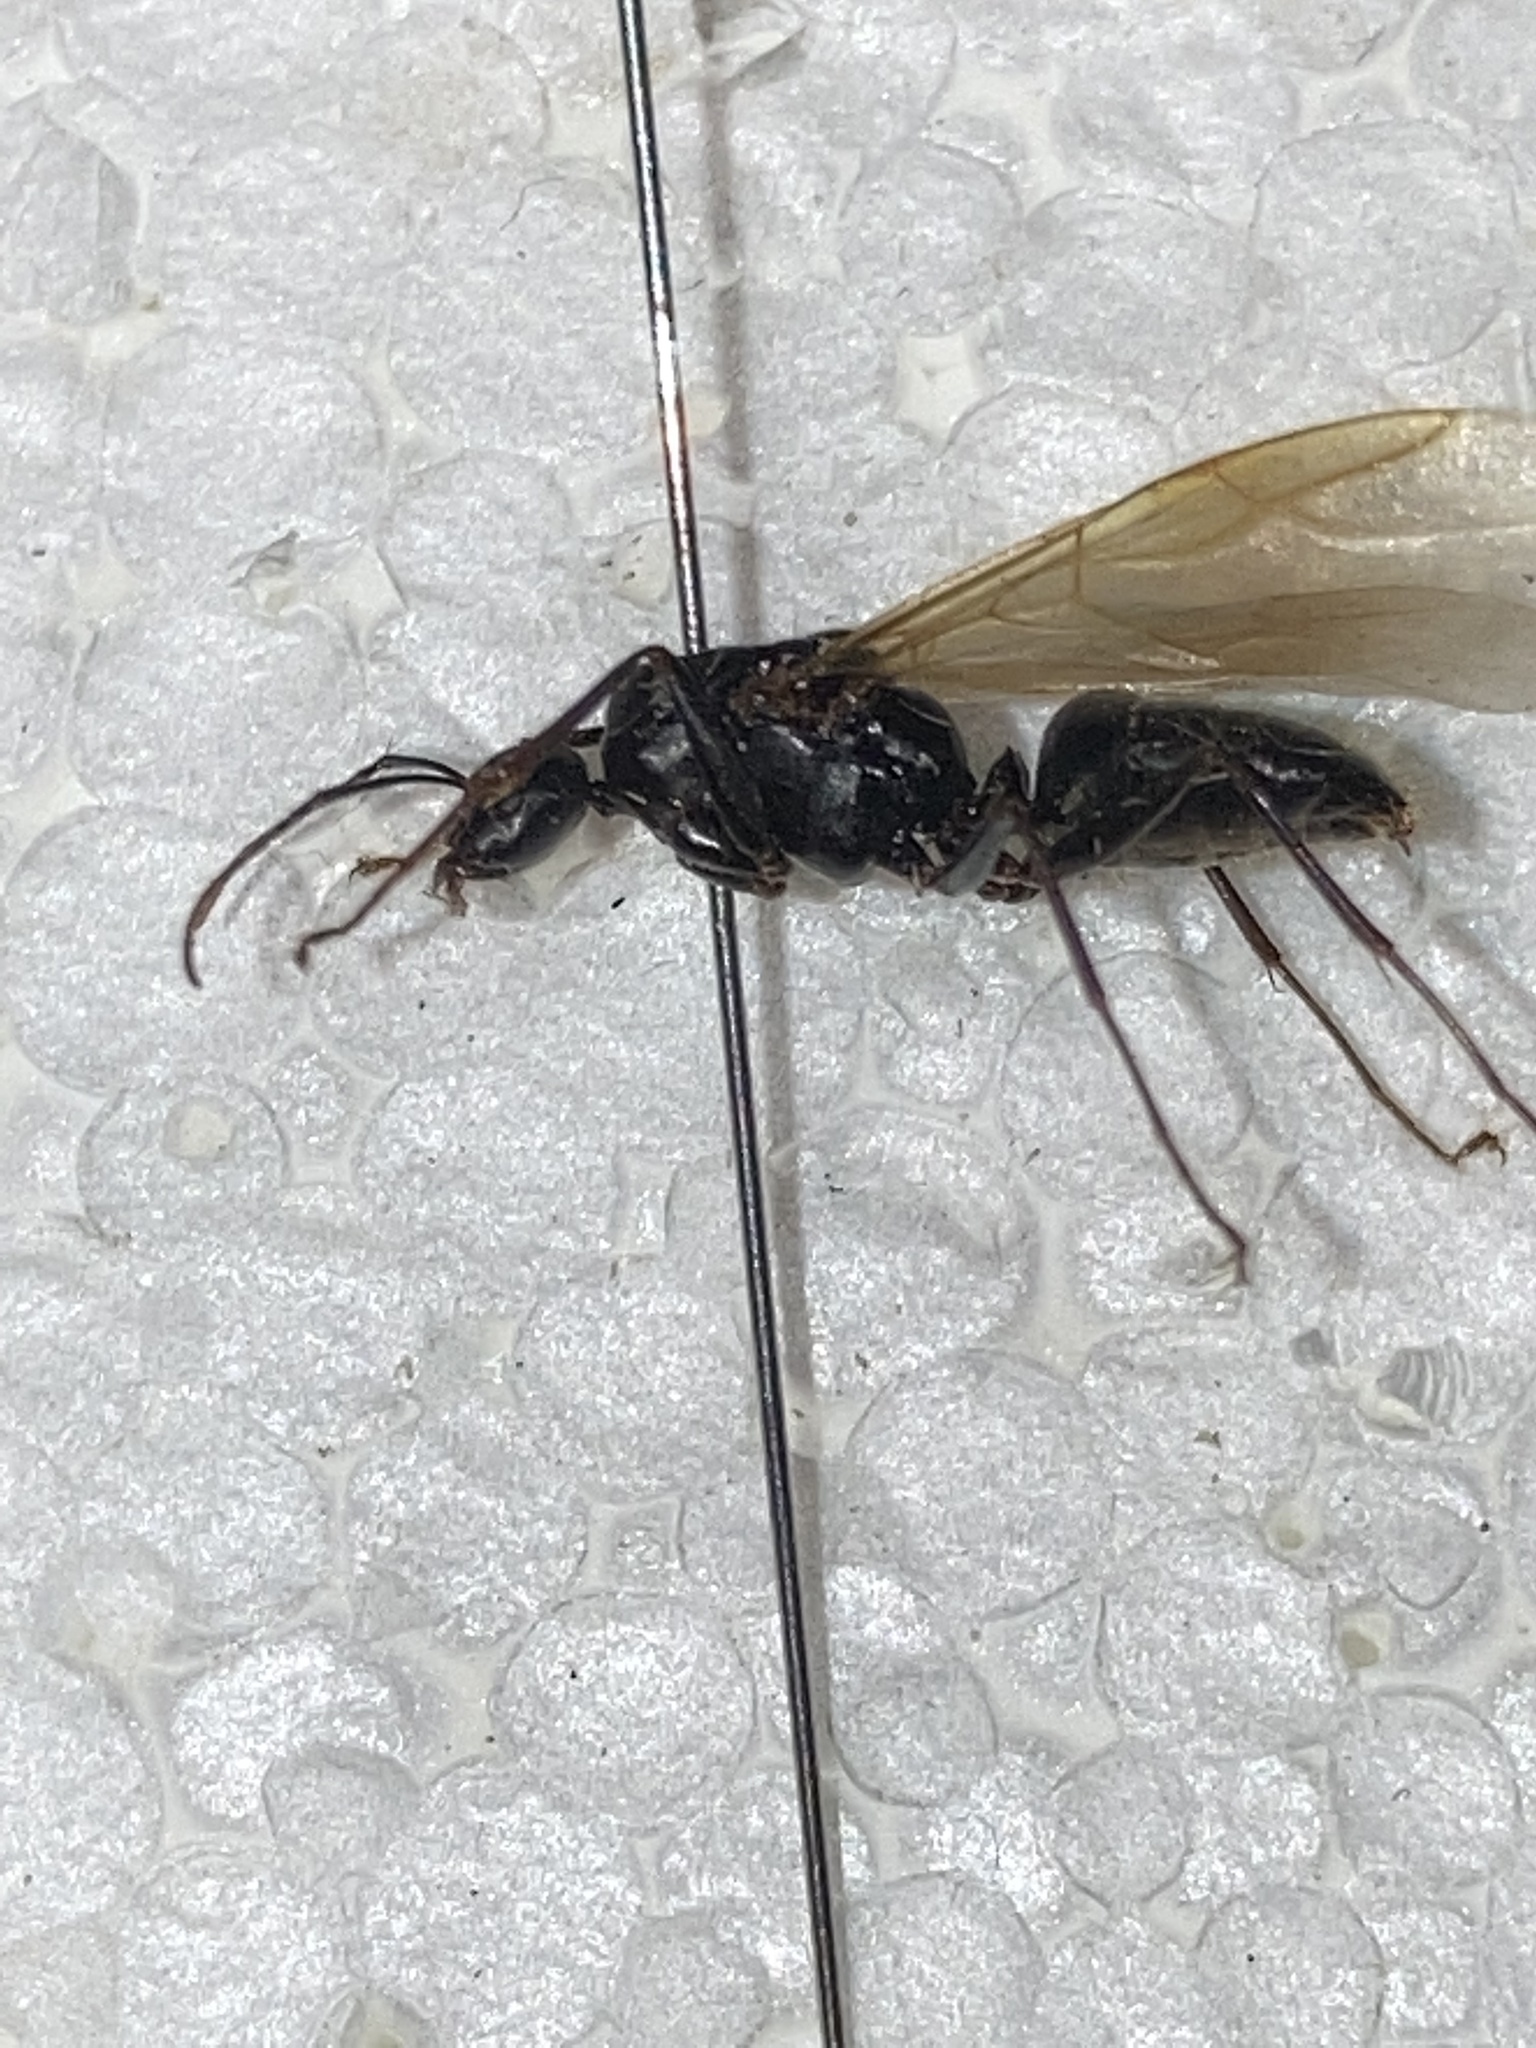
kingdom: Animalia
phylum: Arthropoda
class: Insecta
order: Hymenoptera
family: Formicidae
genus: Camponotus
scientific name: Camponotus pennsylvanicus
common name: Black carpenter ant
